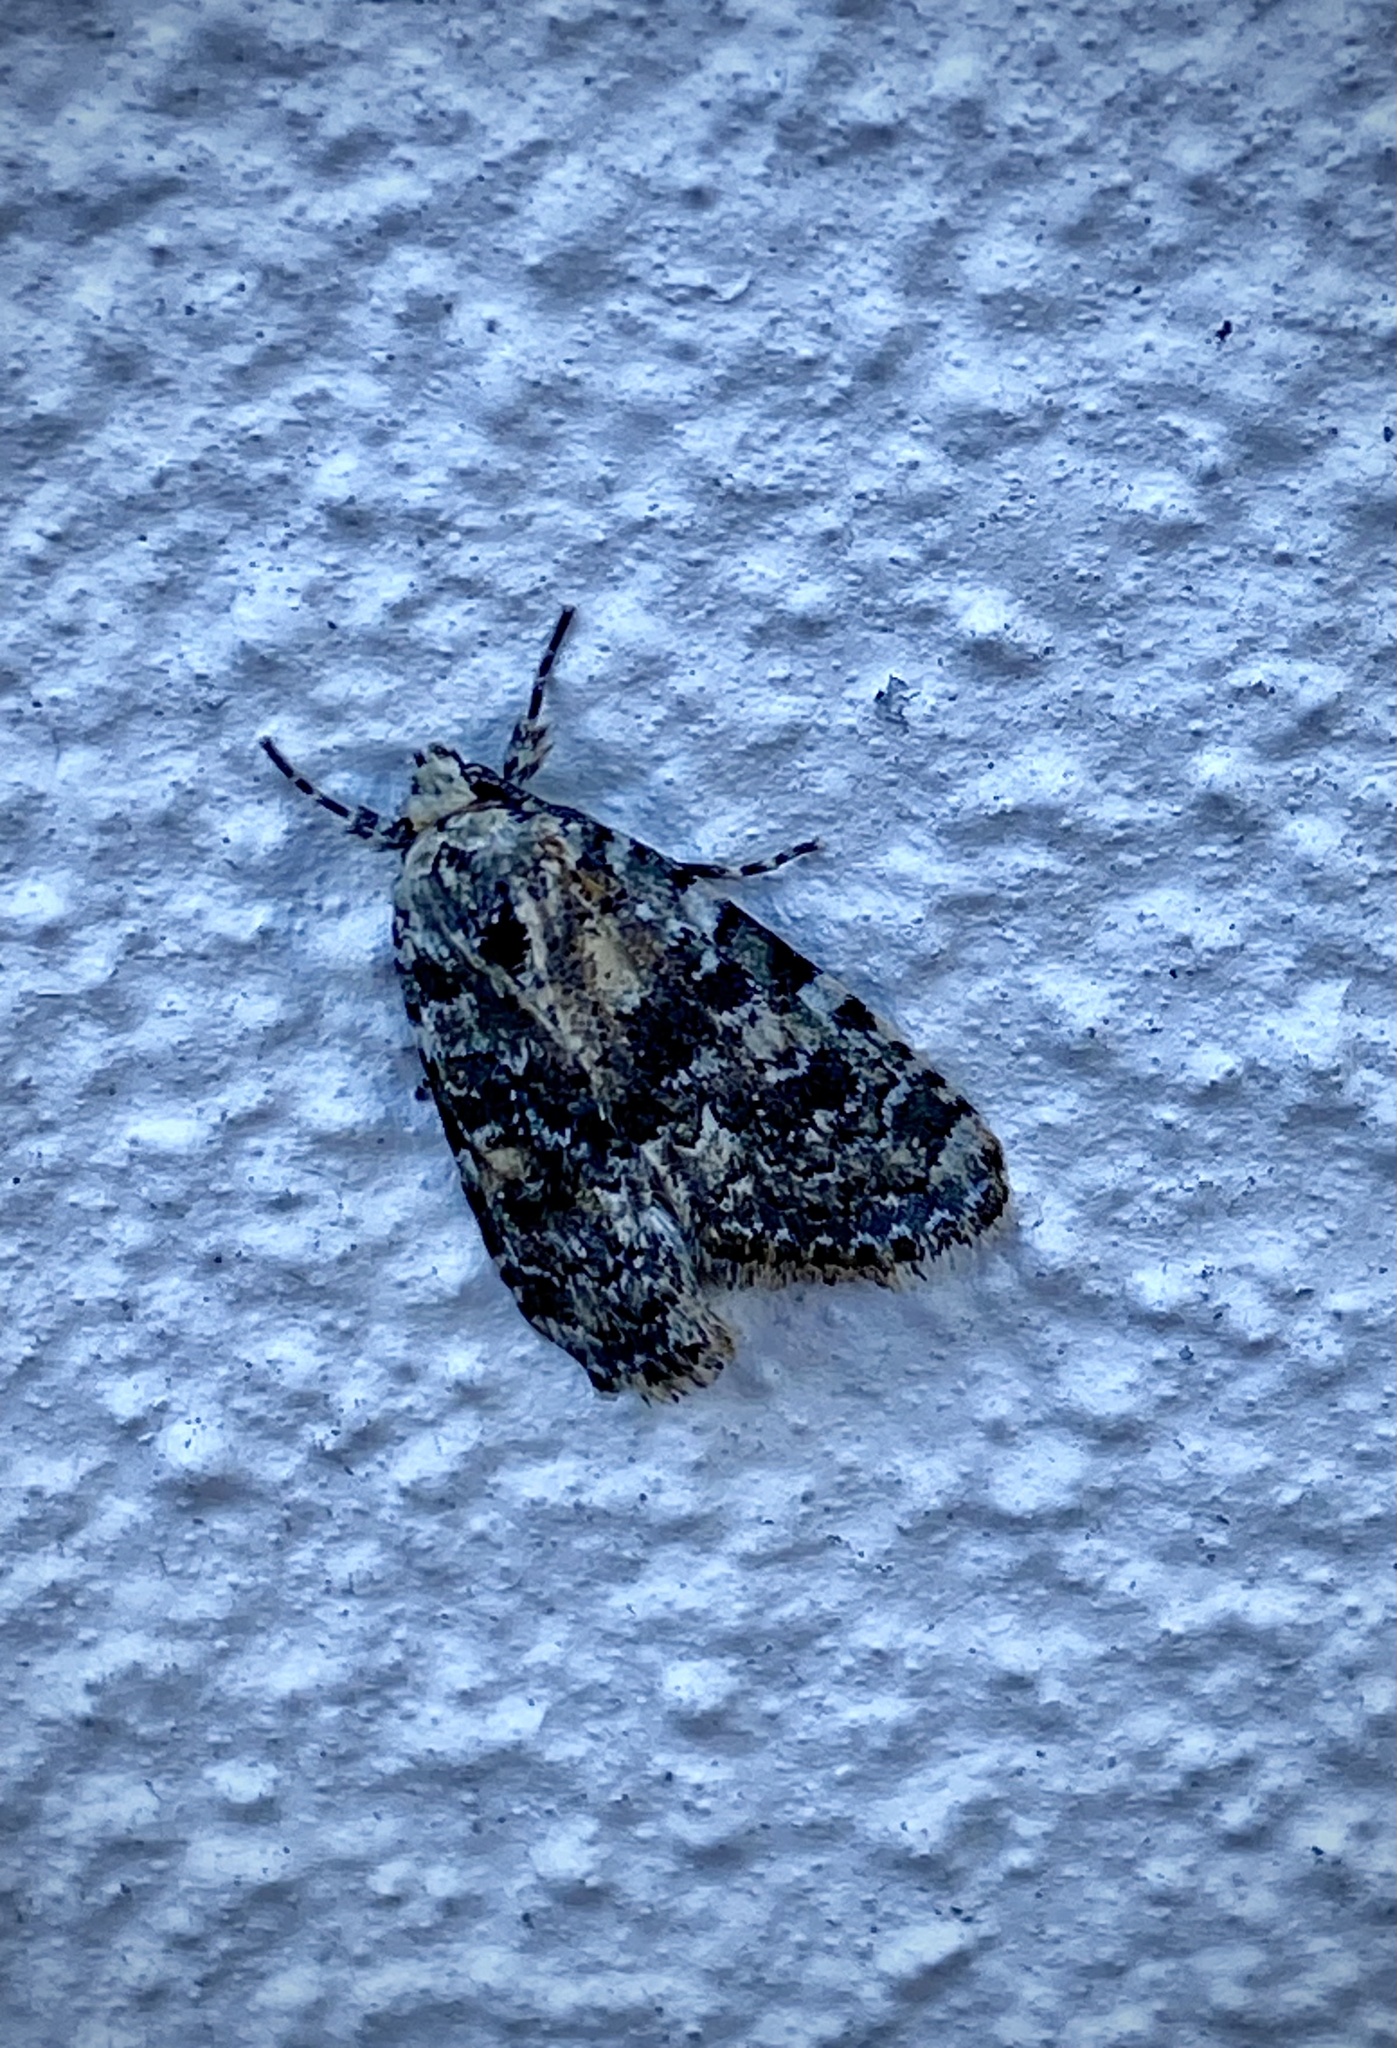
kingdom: Animalia
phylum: Arthropoda
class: Insecta
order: Lepidoptera
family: Noctuidae
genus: Bryophila
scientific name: Bryophila domestica
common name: Marbled beauty
